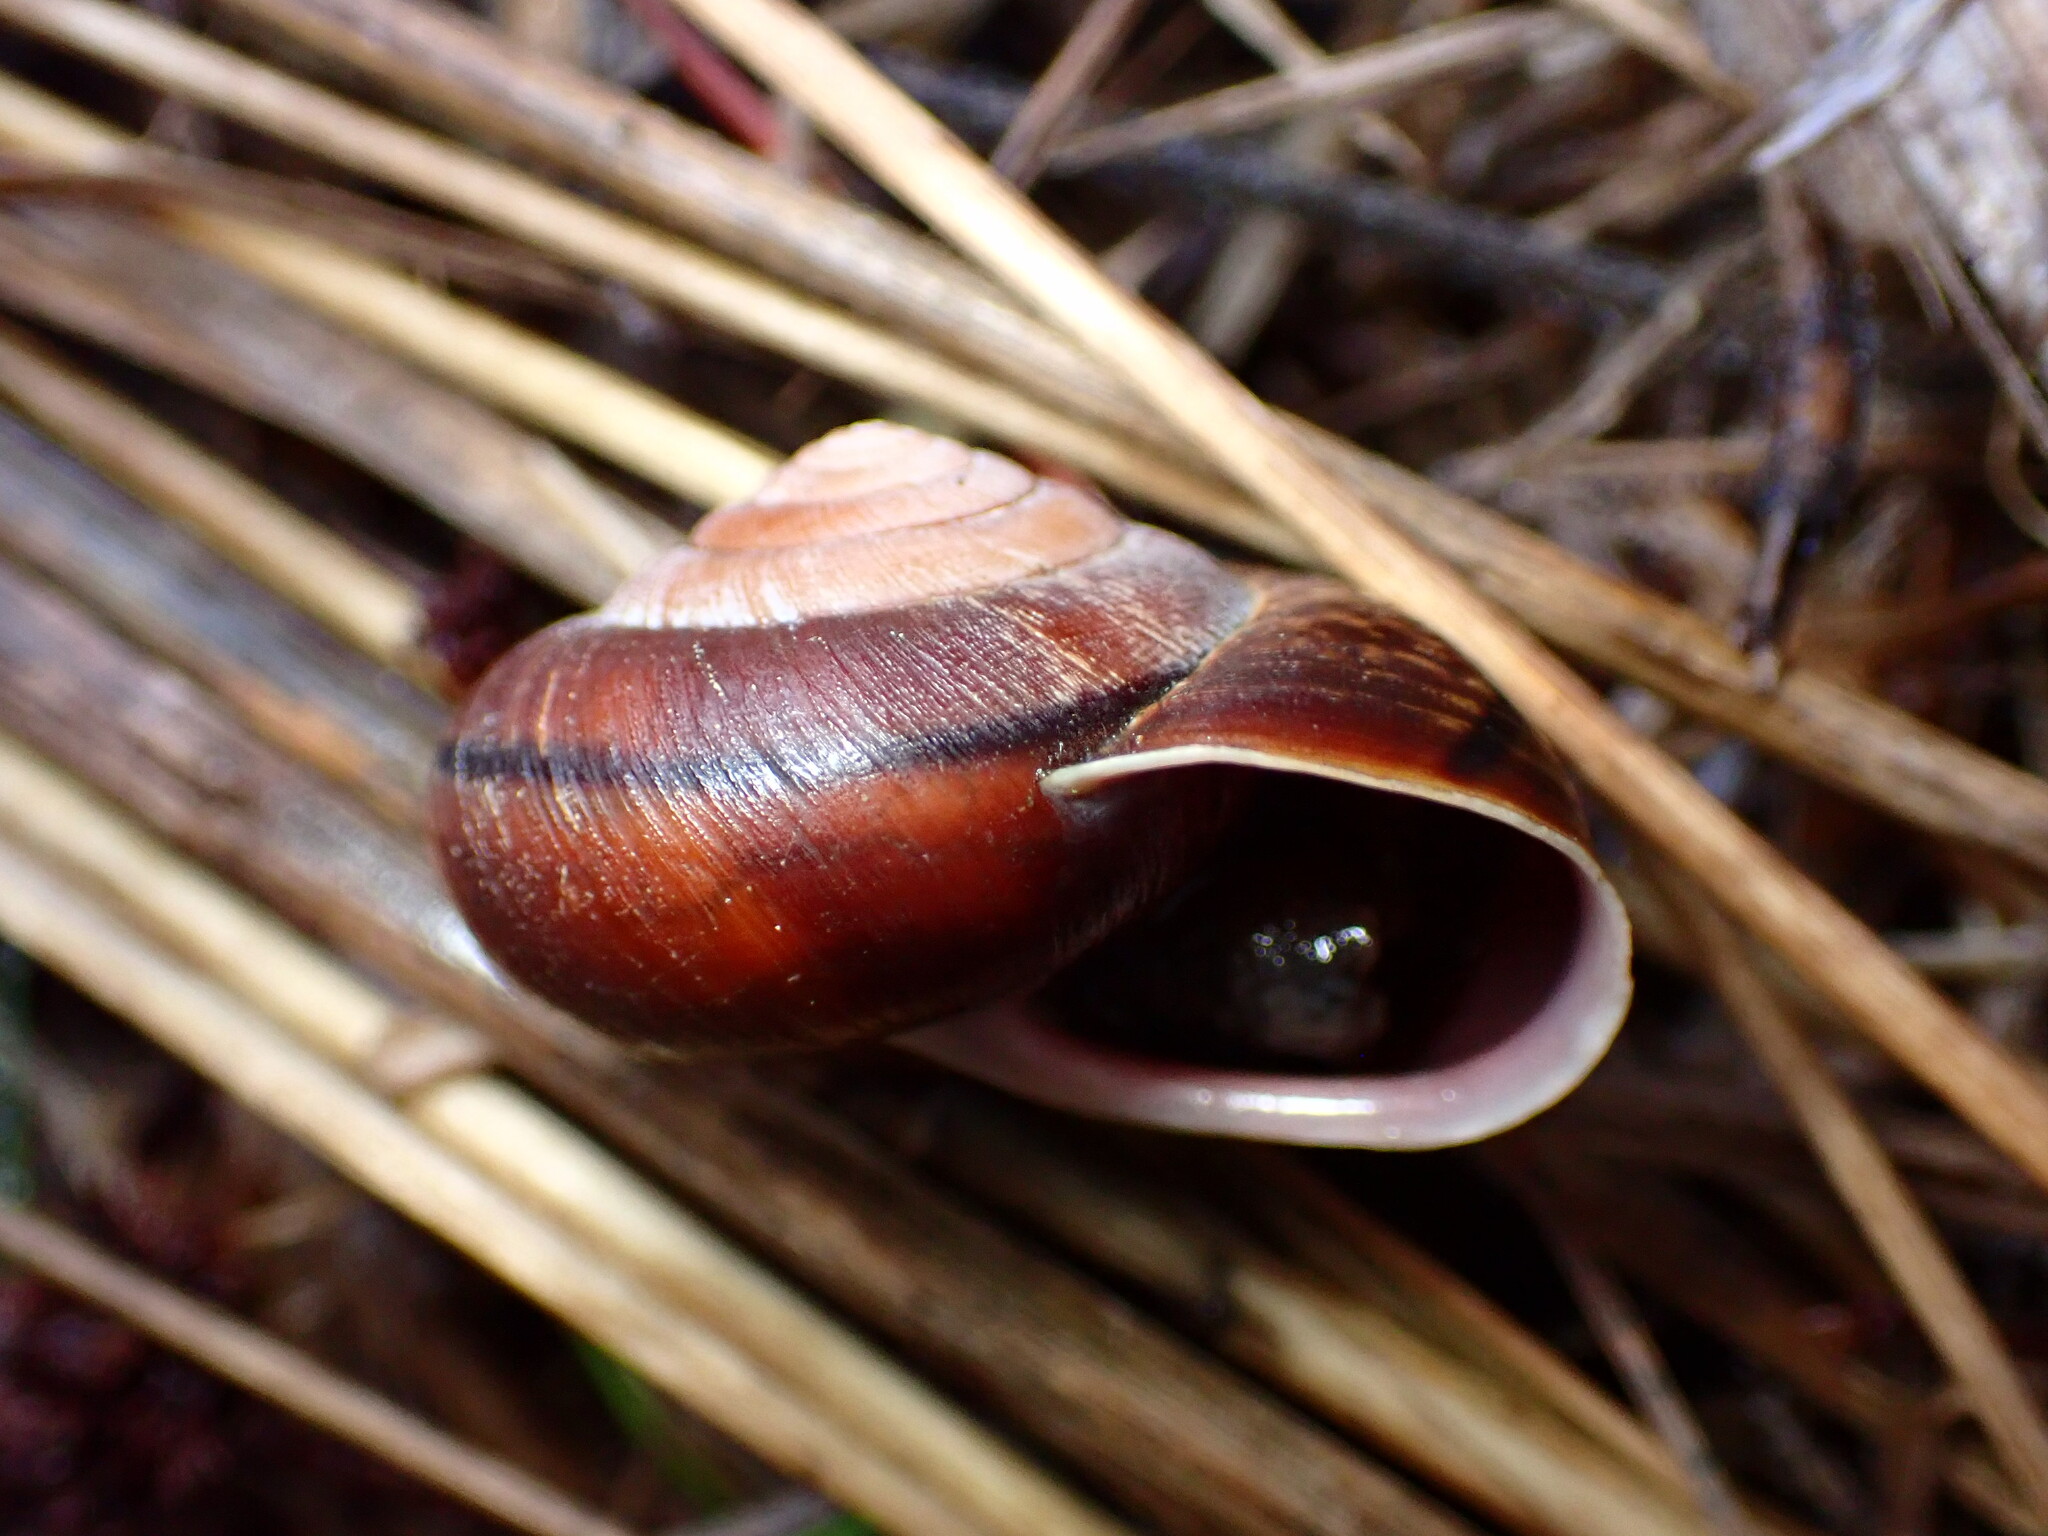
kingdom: Animalia
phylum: Mollusca
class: Gastropoda
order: Stylommatophora
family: Xanthonychidae
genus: Helminthoglypta
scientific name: Helminthoglypta arrosa
